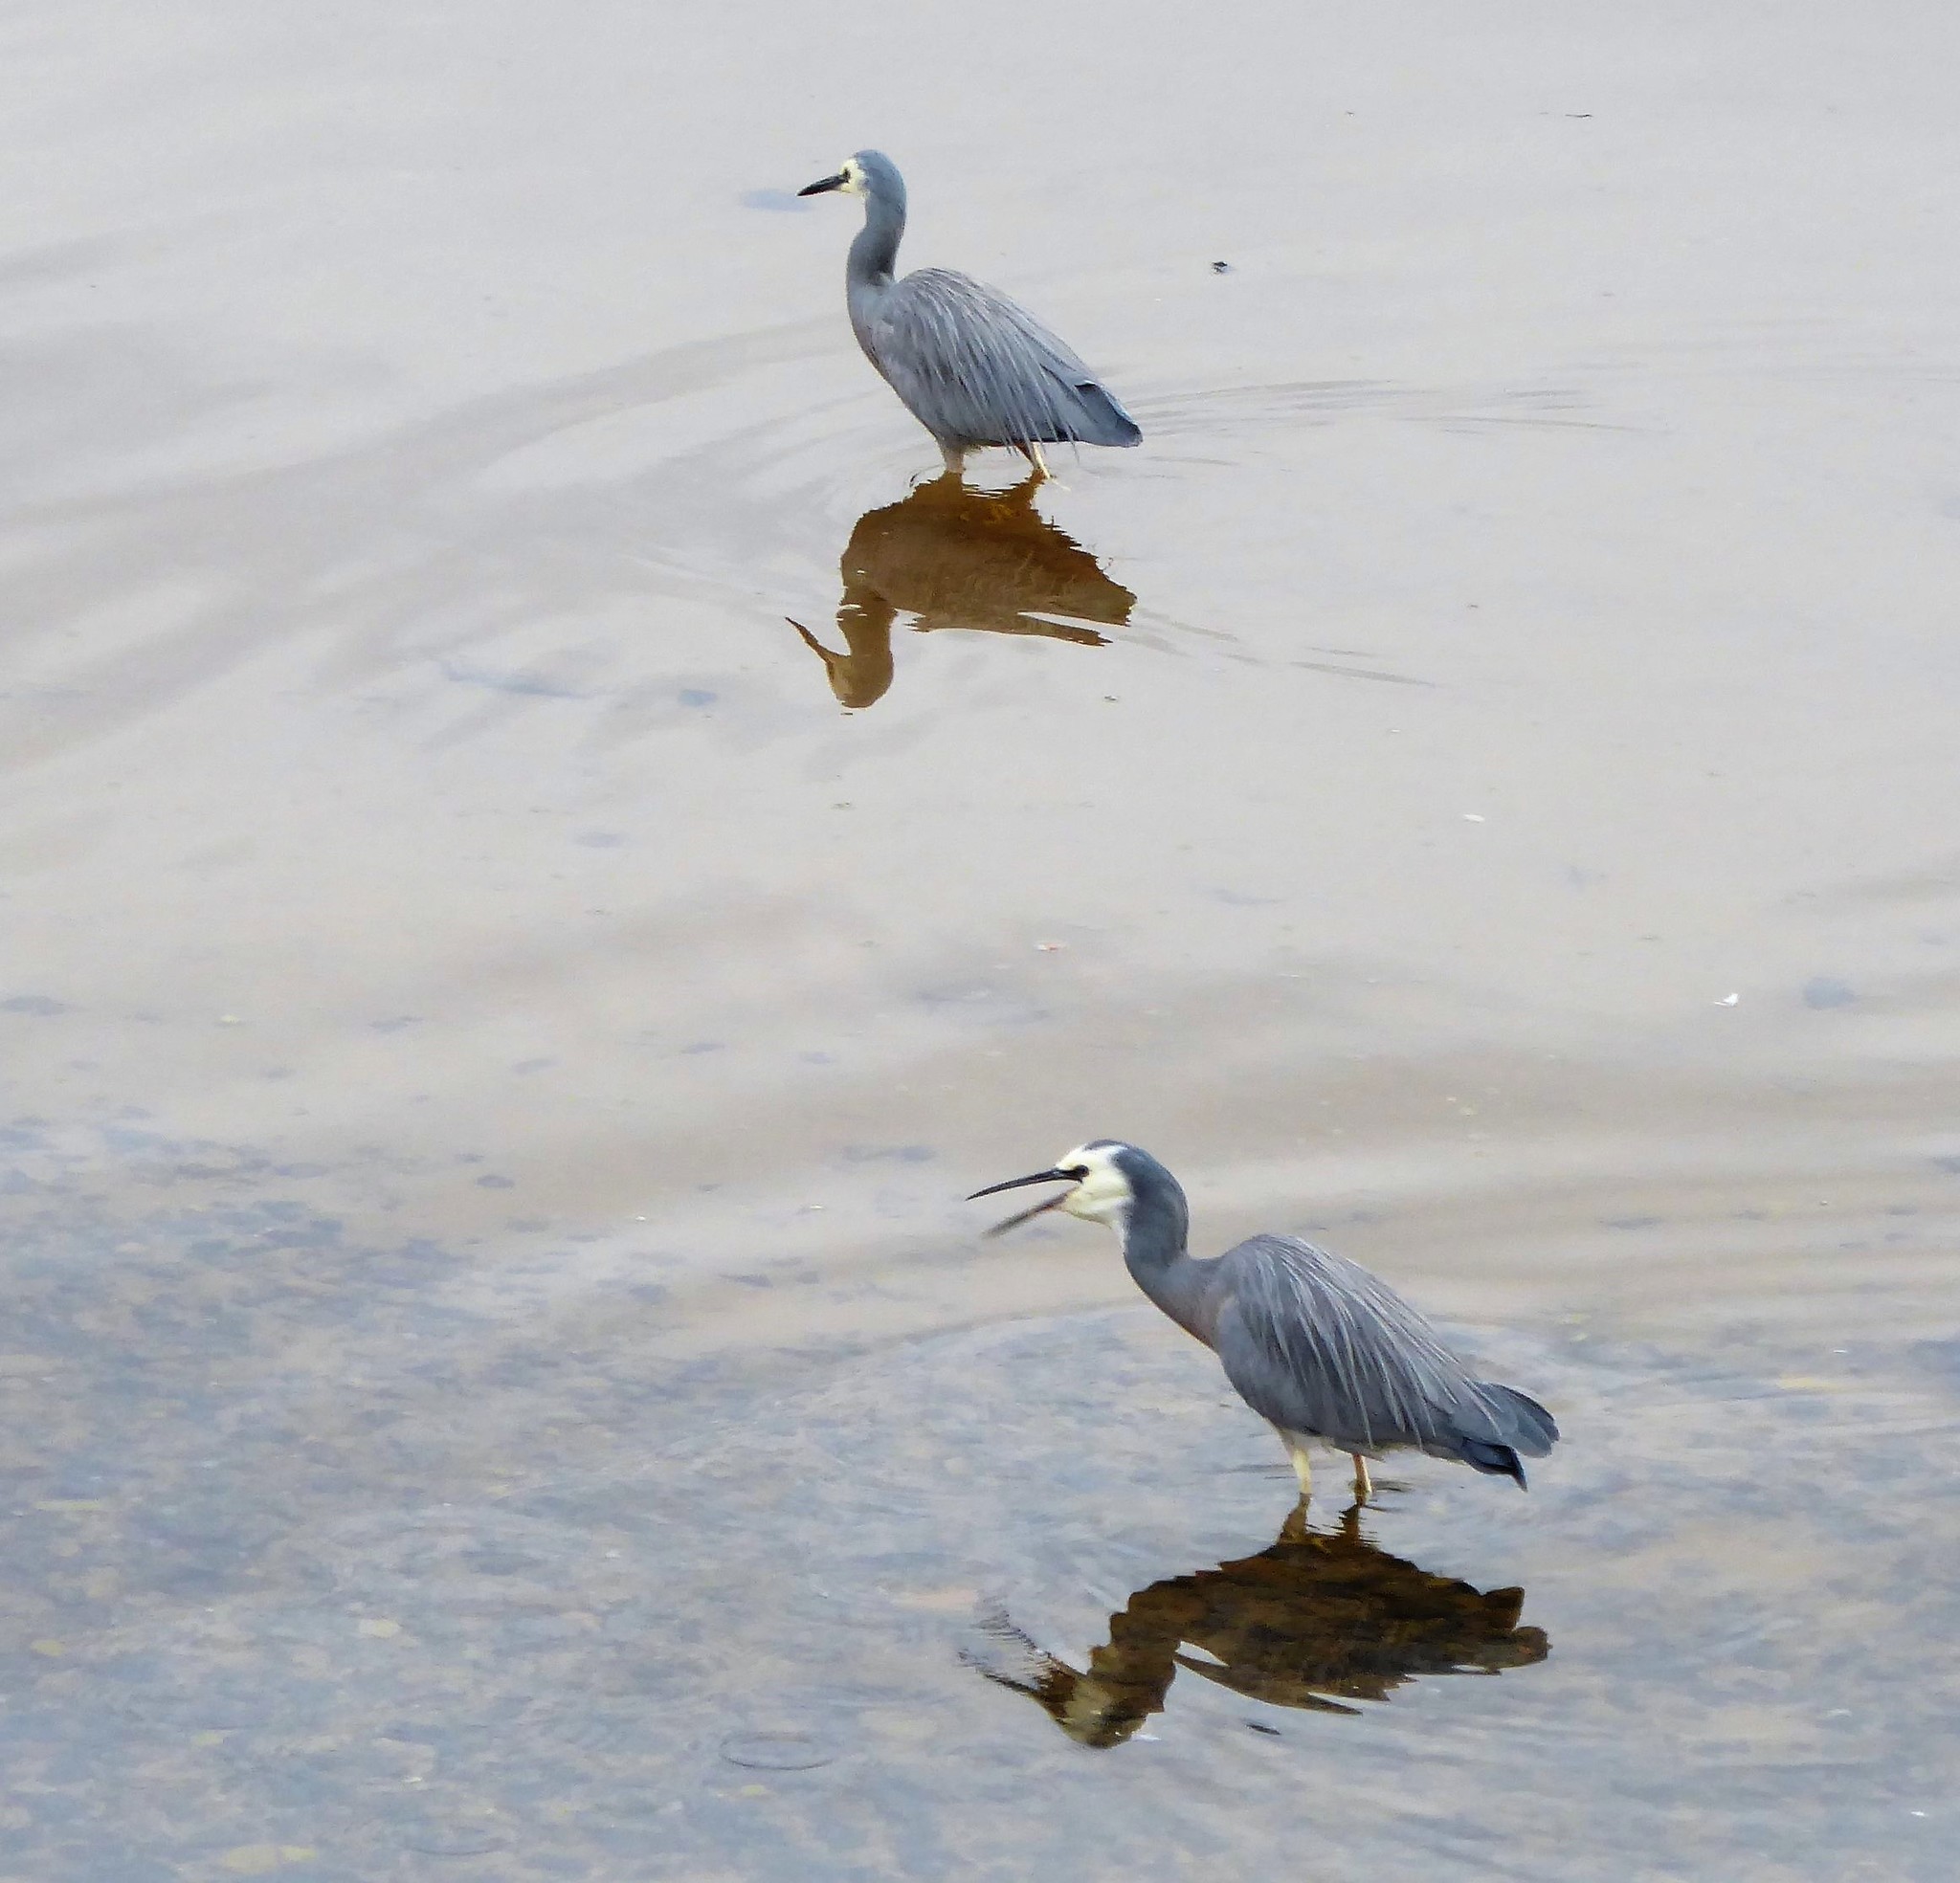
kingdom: Animalia
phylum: Chordata
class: Aves
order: Pelecaniformes
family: Ardeidae
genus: Egretta
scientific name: Egretta novaehollandiae
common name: White-faced heron
